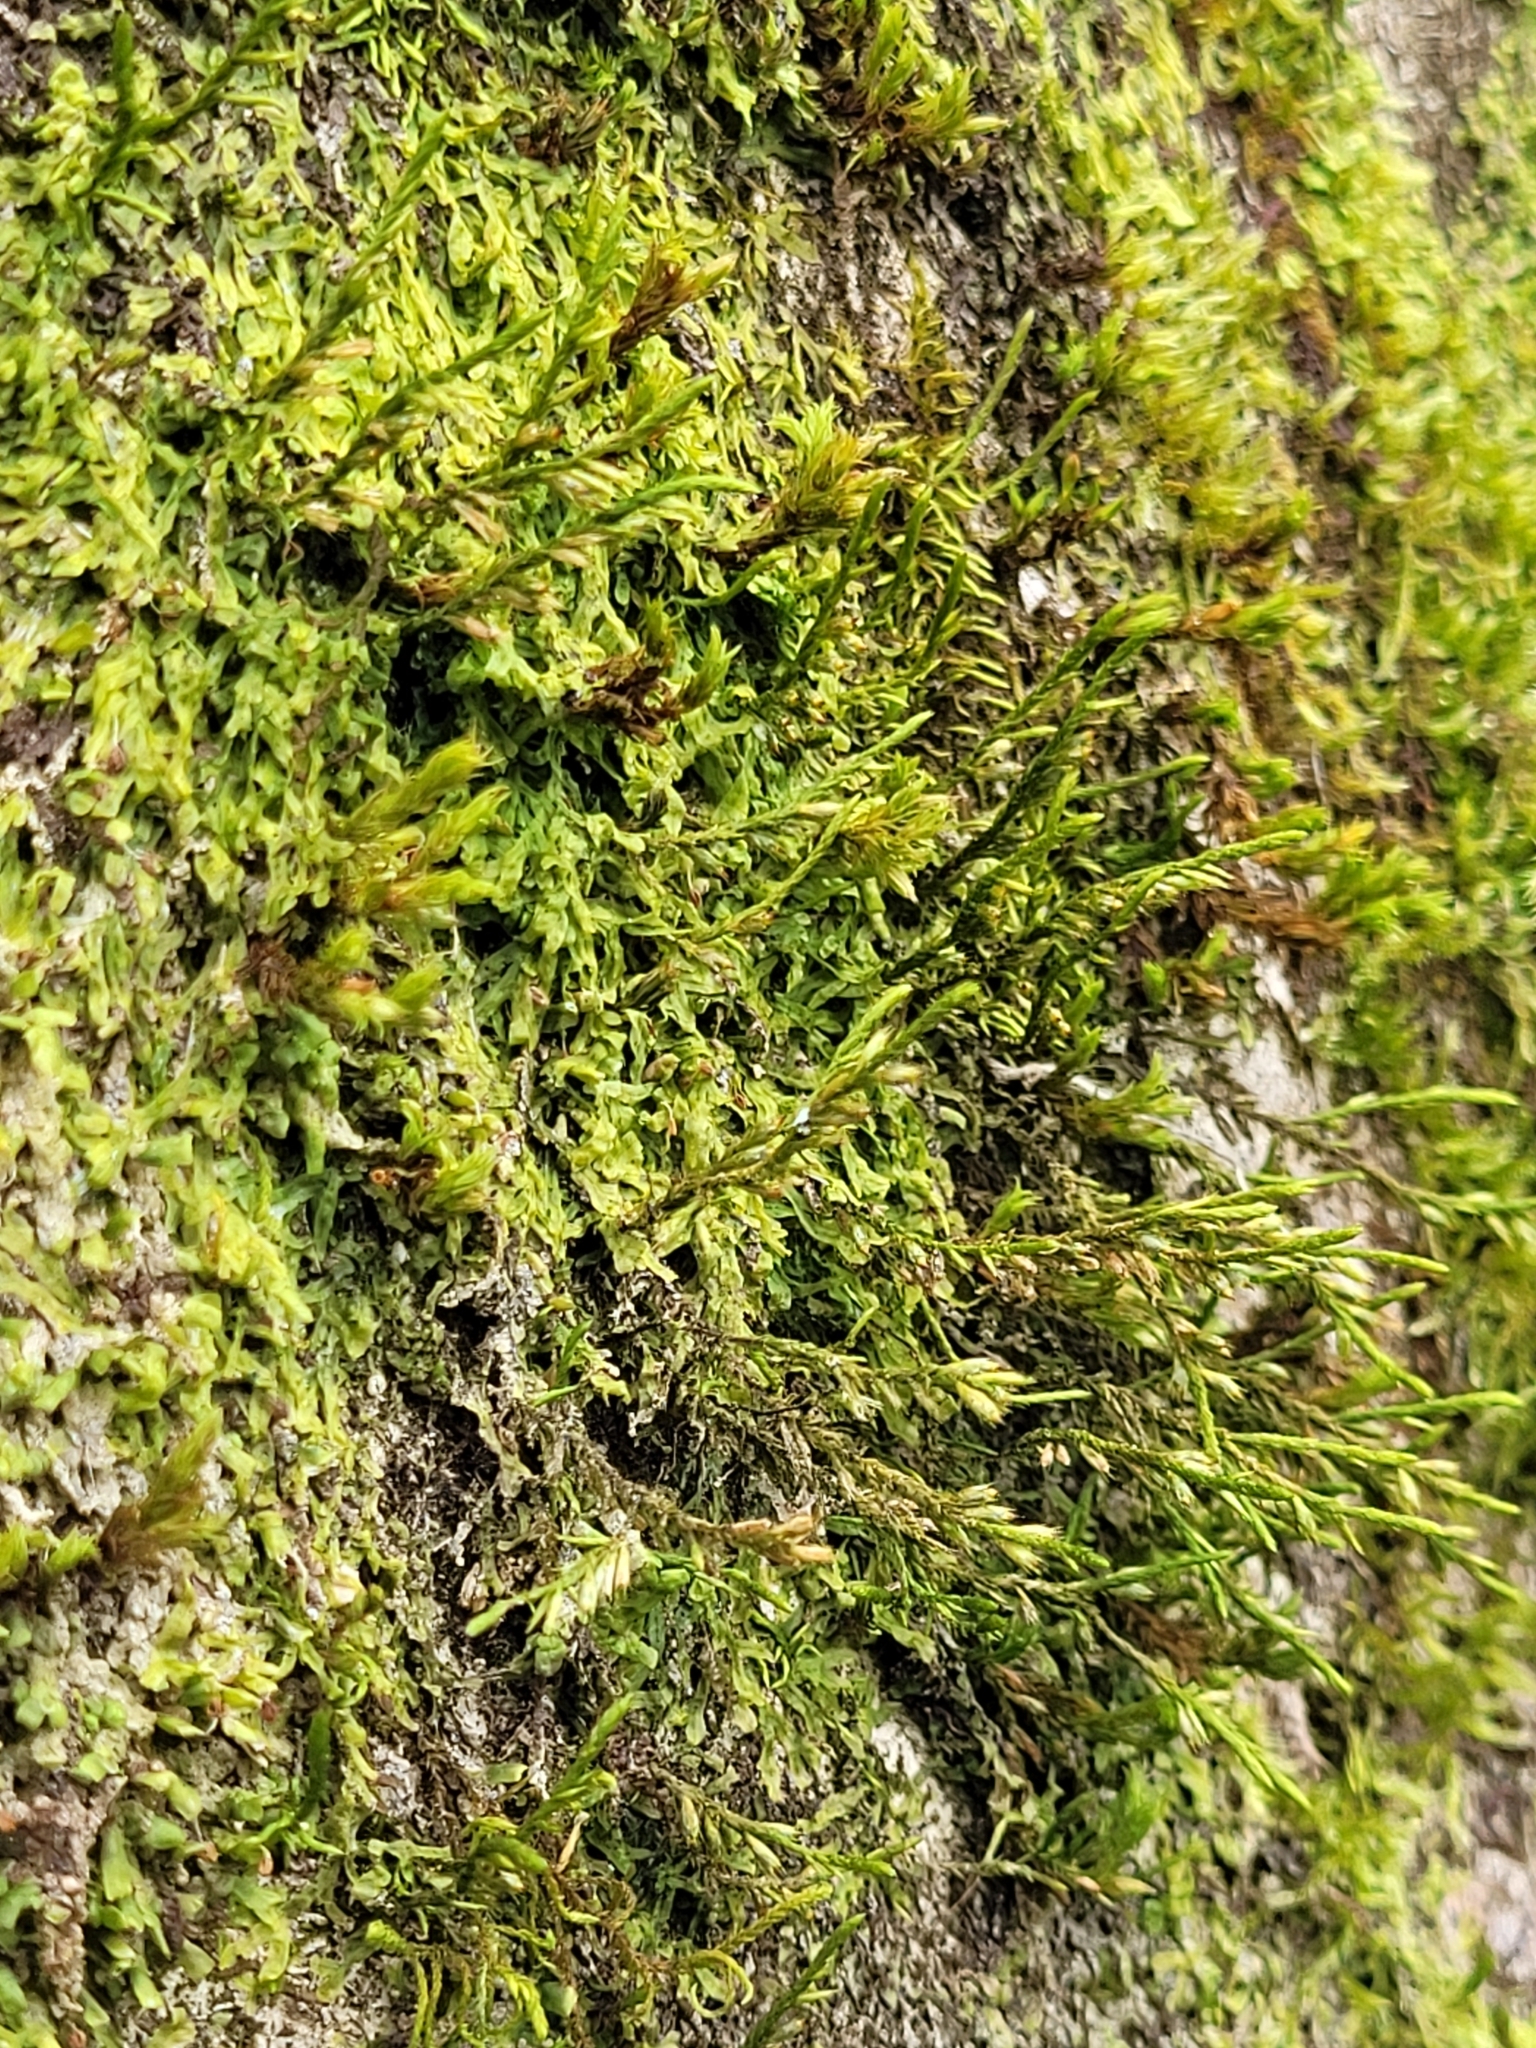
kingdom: Plantae
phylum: Bryophyta
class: Bryopsida
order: Hypnales
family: Cryphaeaceae
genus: Cryphaea
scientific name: Cryphaea heteromalla
